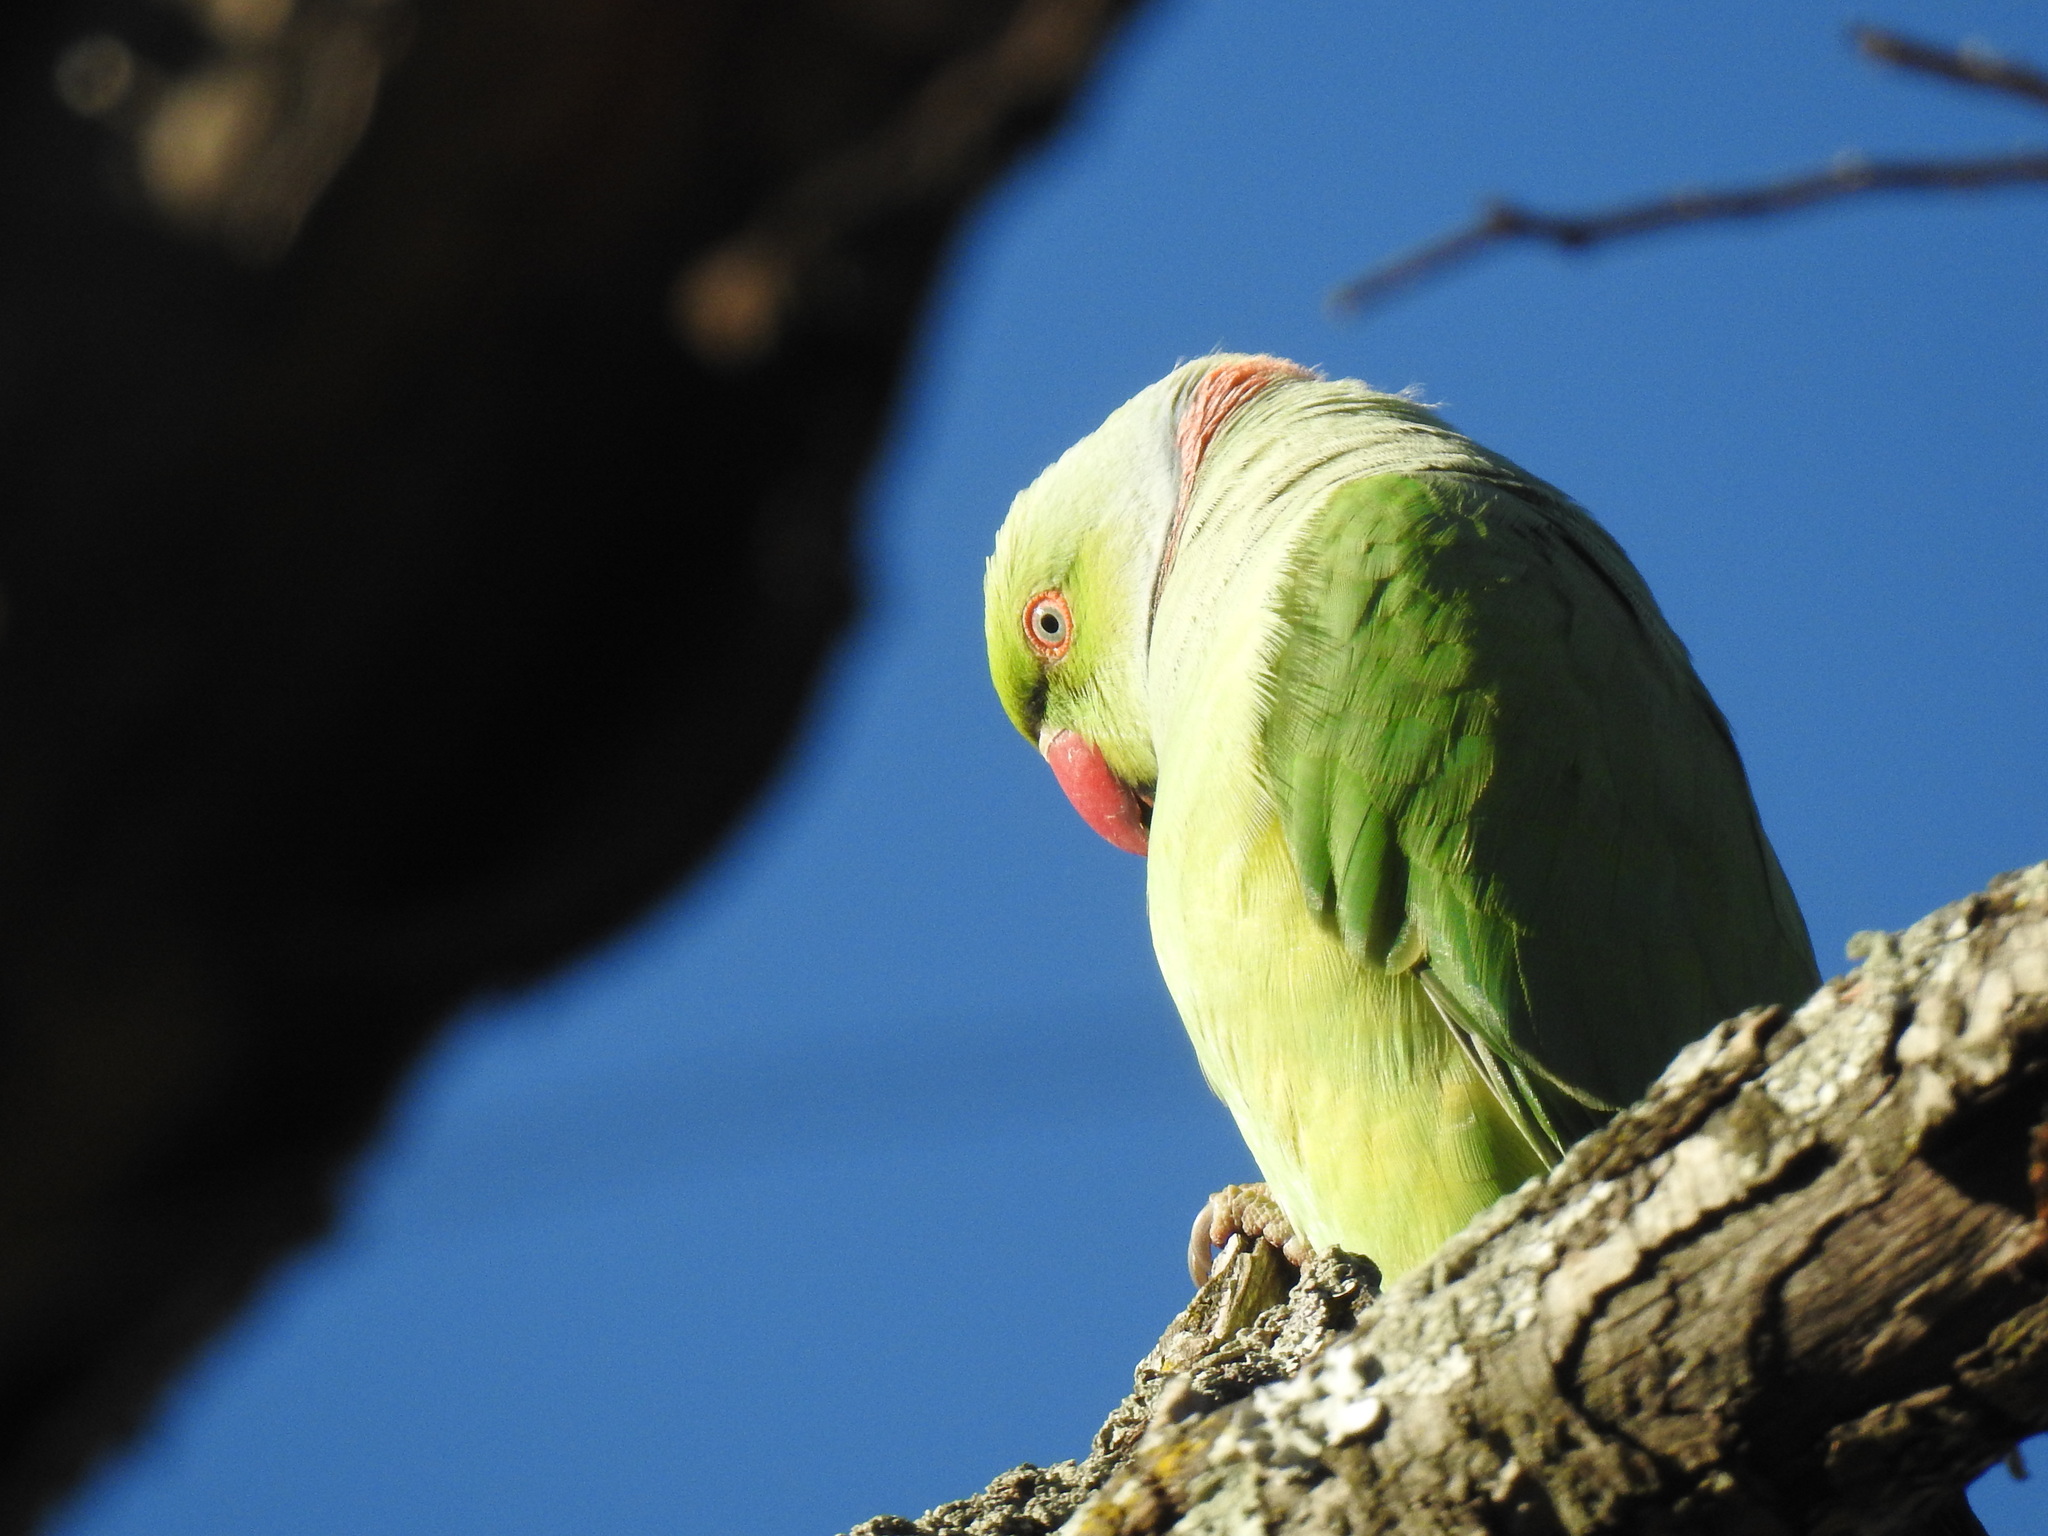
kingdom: Animalia
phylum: Chordata
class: Aves
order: Psittaciformes
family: Psittacidae
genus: Psittacula
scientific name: Psittacula krameri
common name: Rose-ringed parakeet
